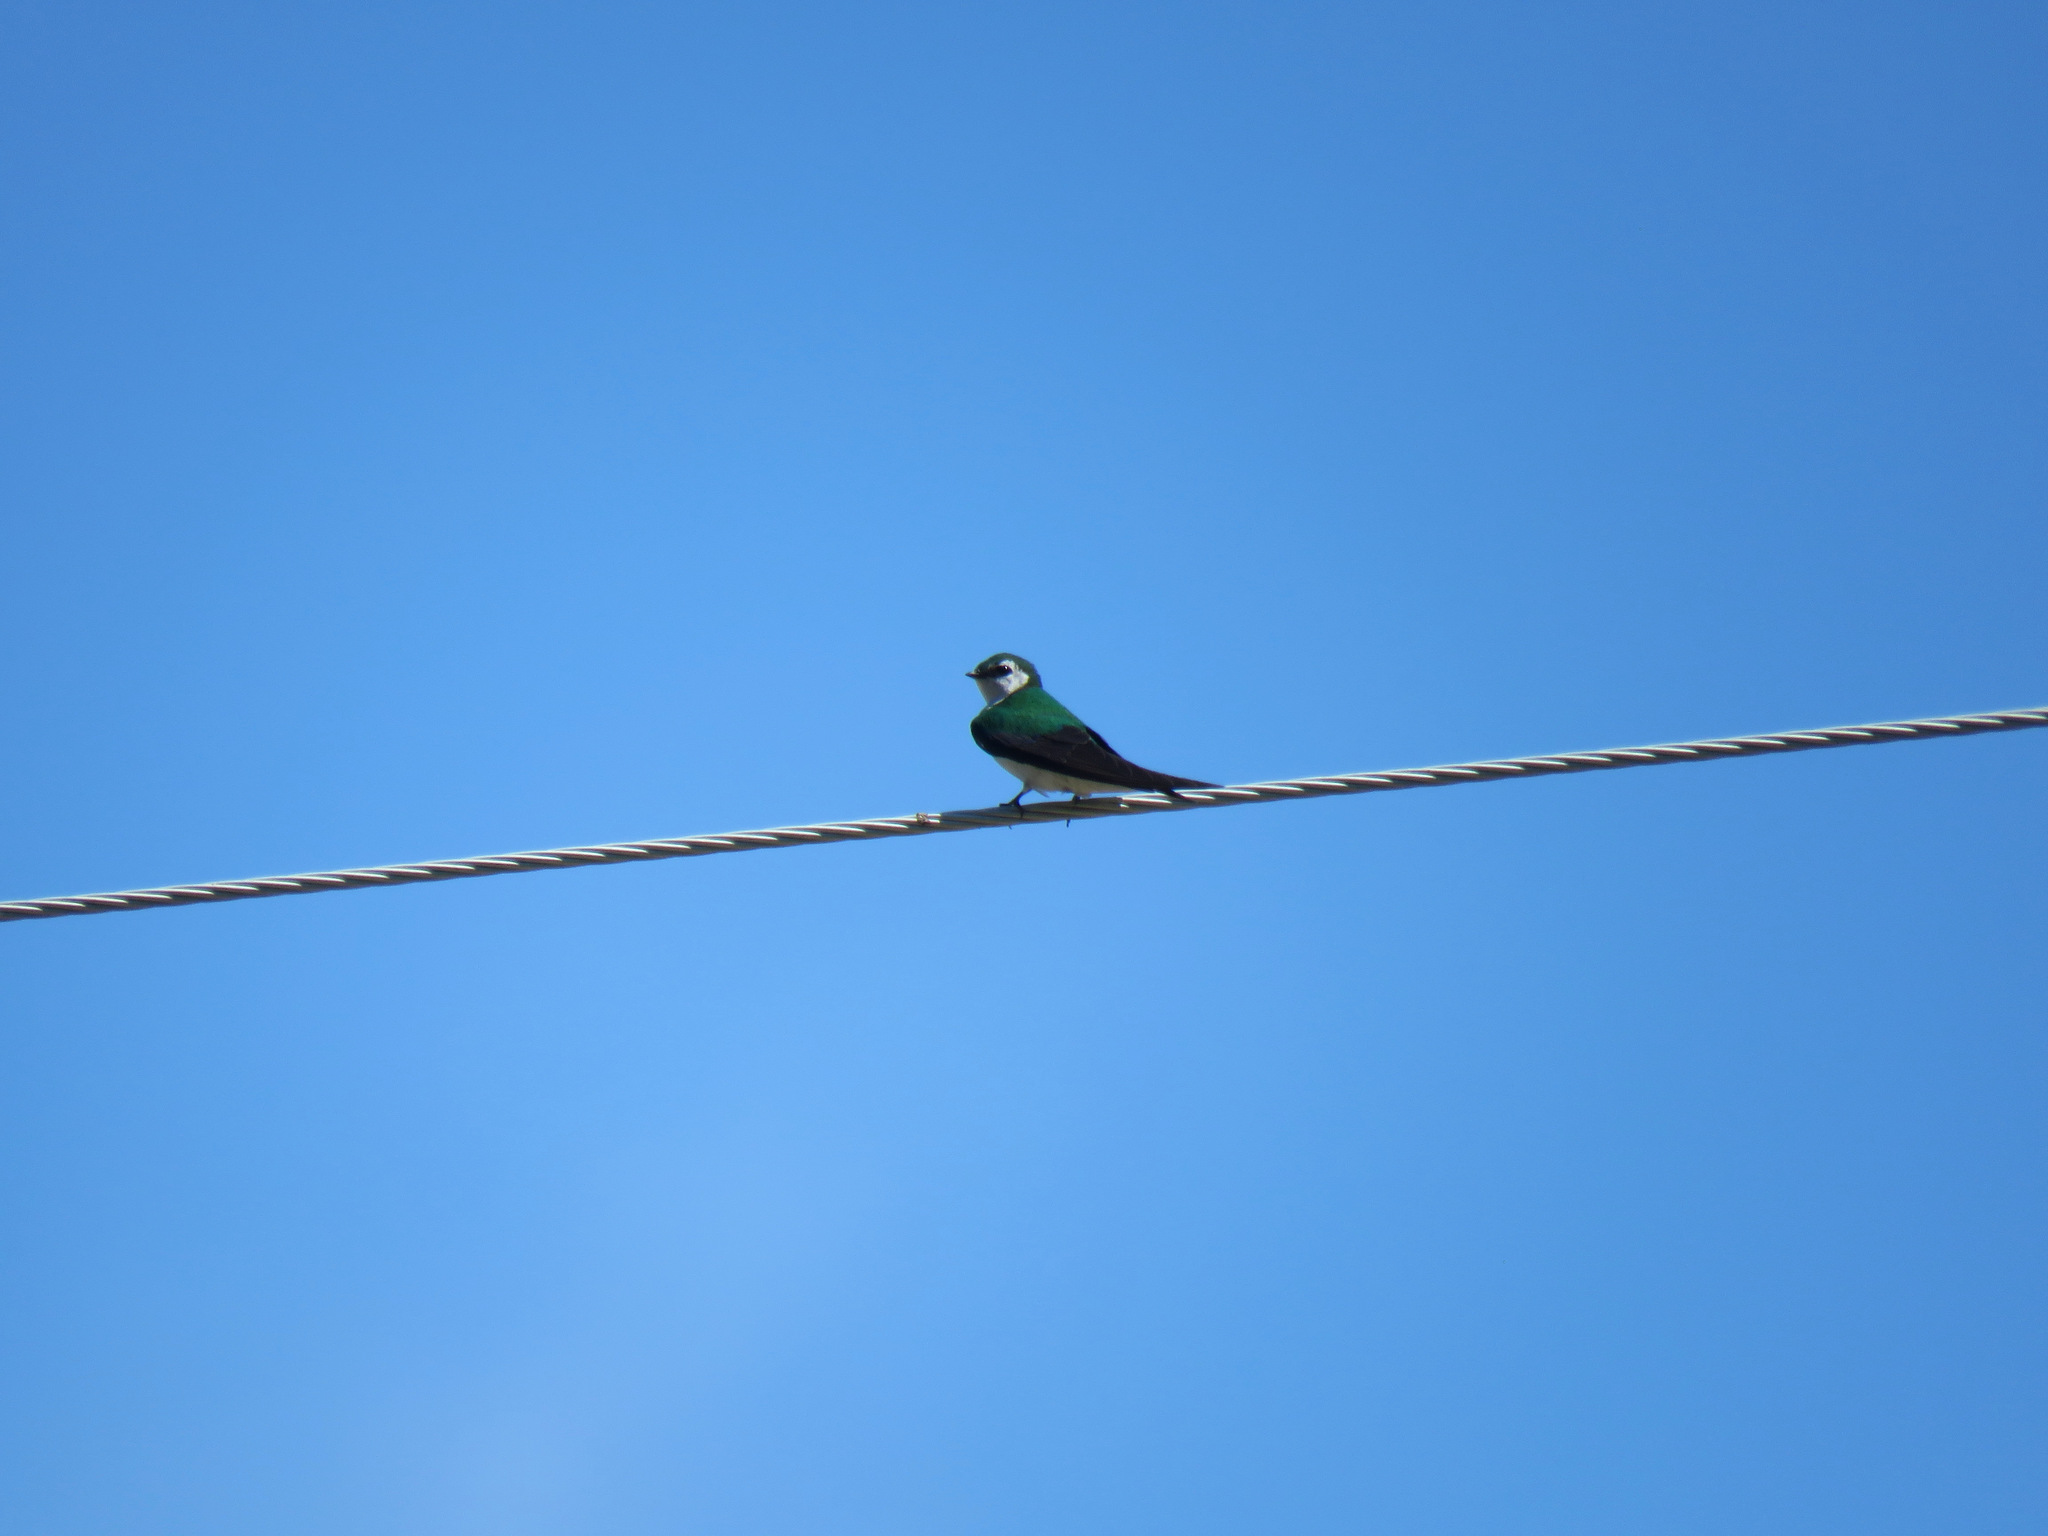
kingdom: Animalia
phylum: Chordata
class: Aves
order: Passeriformes
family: Hirundinidae
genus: Tachycineta
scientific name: Tachycineta thalassina
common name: Violet-green swallow
